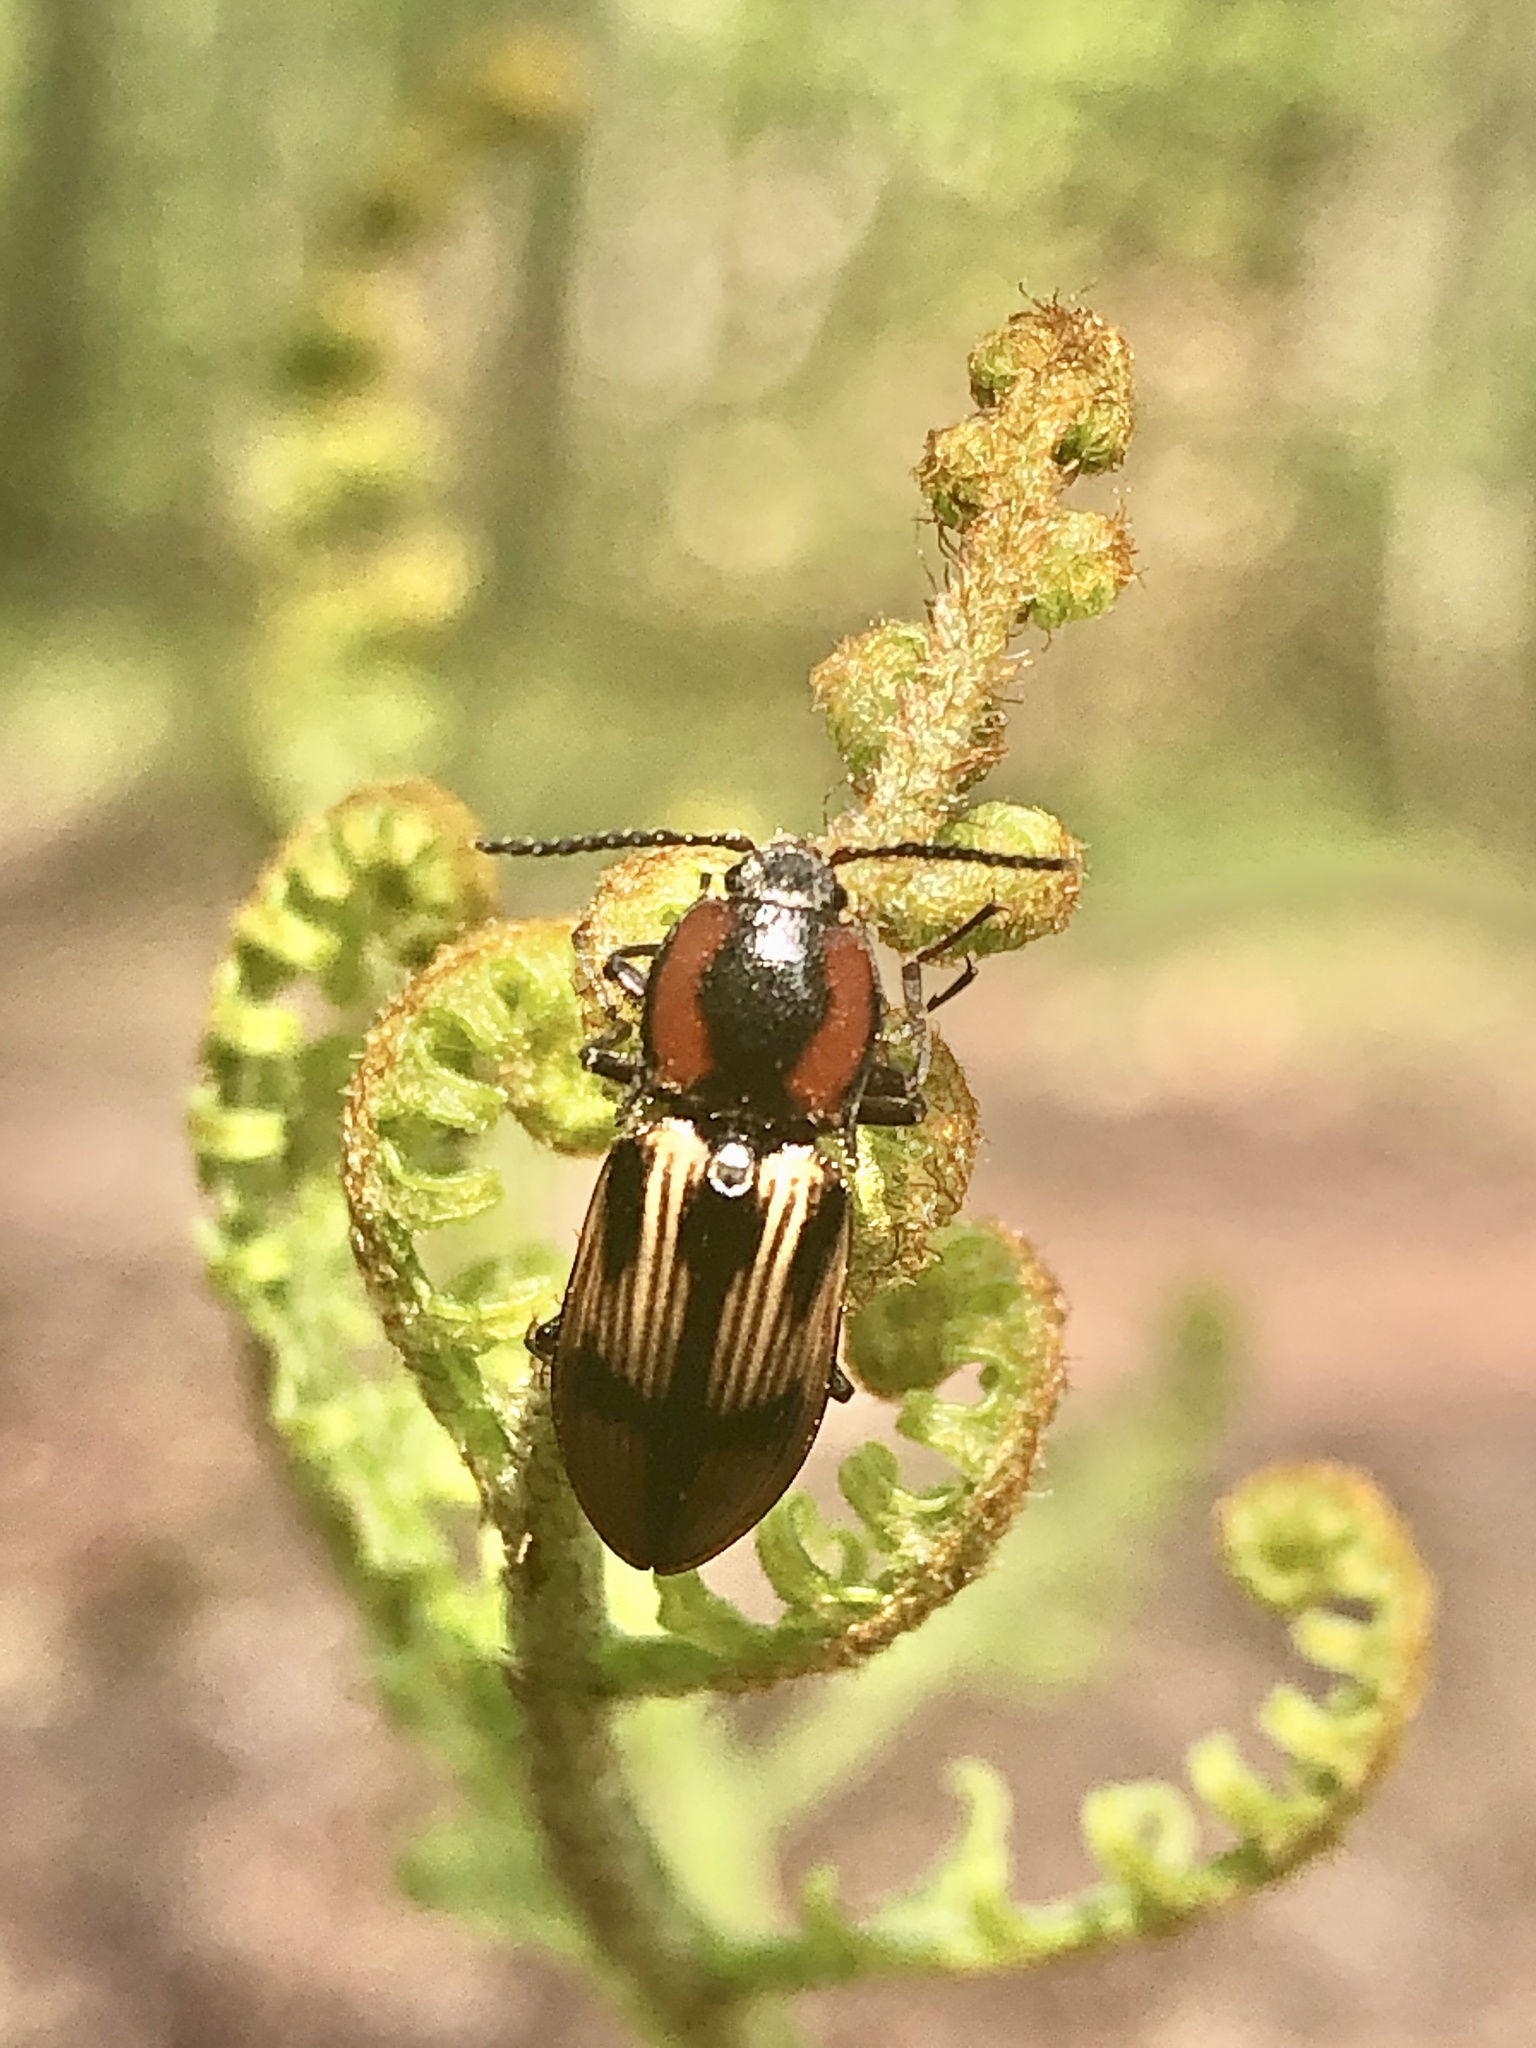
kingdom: Animalia
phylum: Arthropoda
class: Insecta
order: Coleoptera
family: Elateridae
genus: Selatosomus
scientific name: Selatosomus pulcher
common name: Noble click beetle
